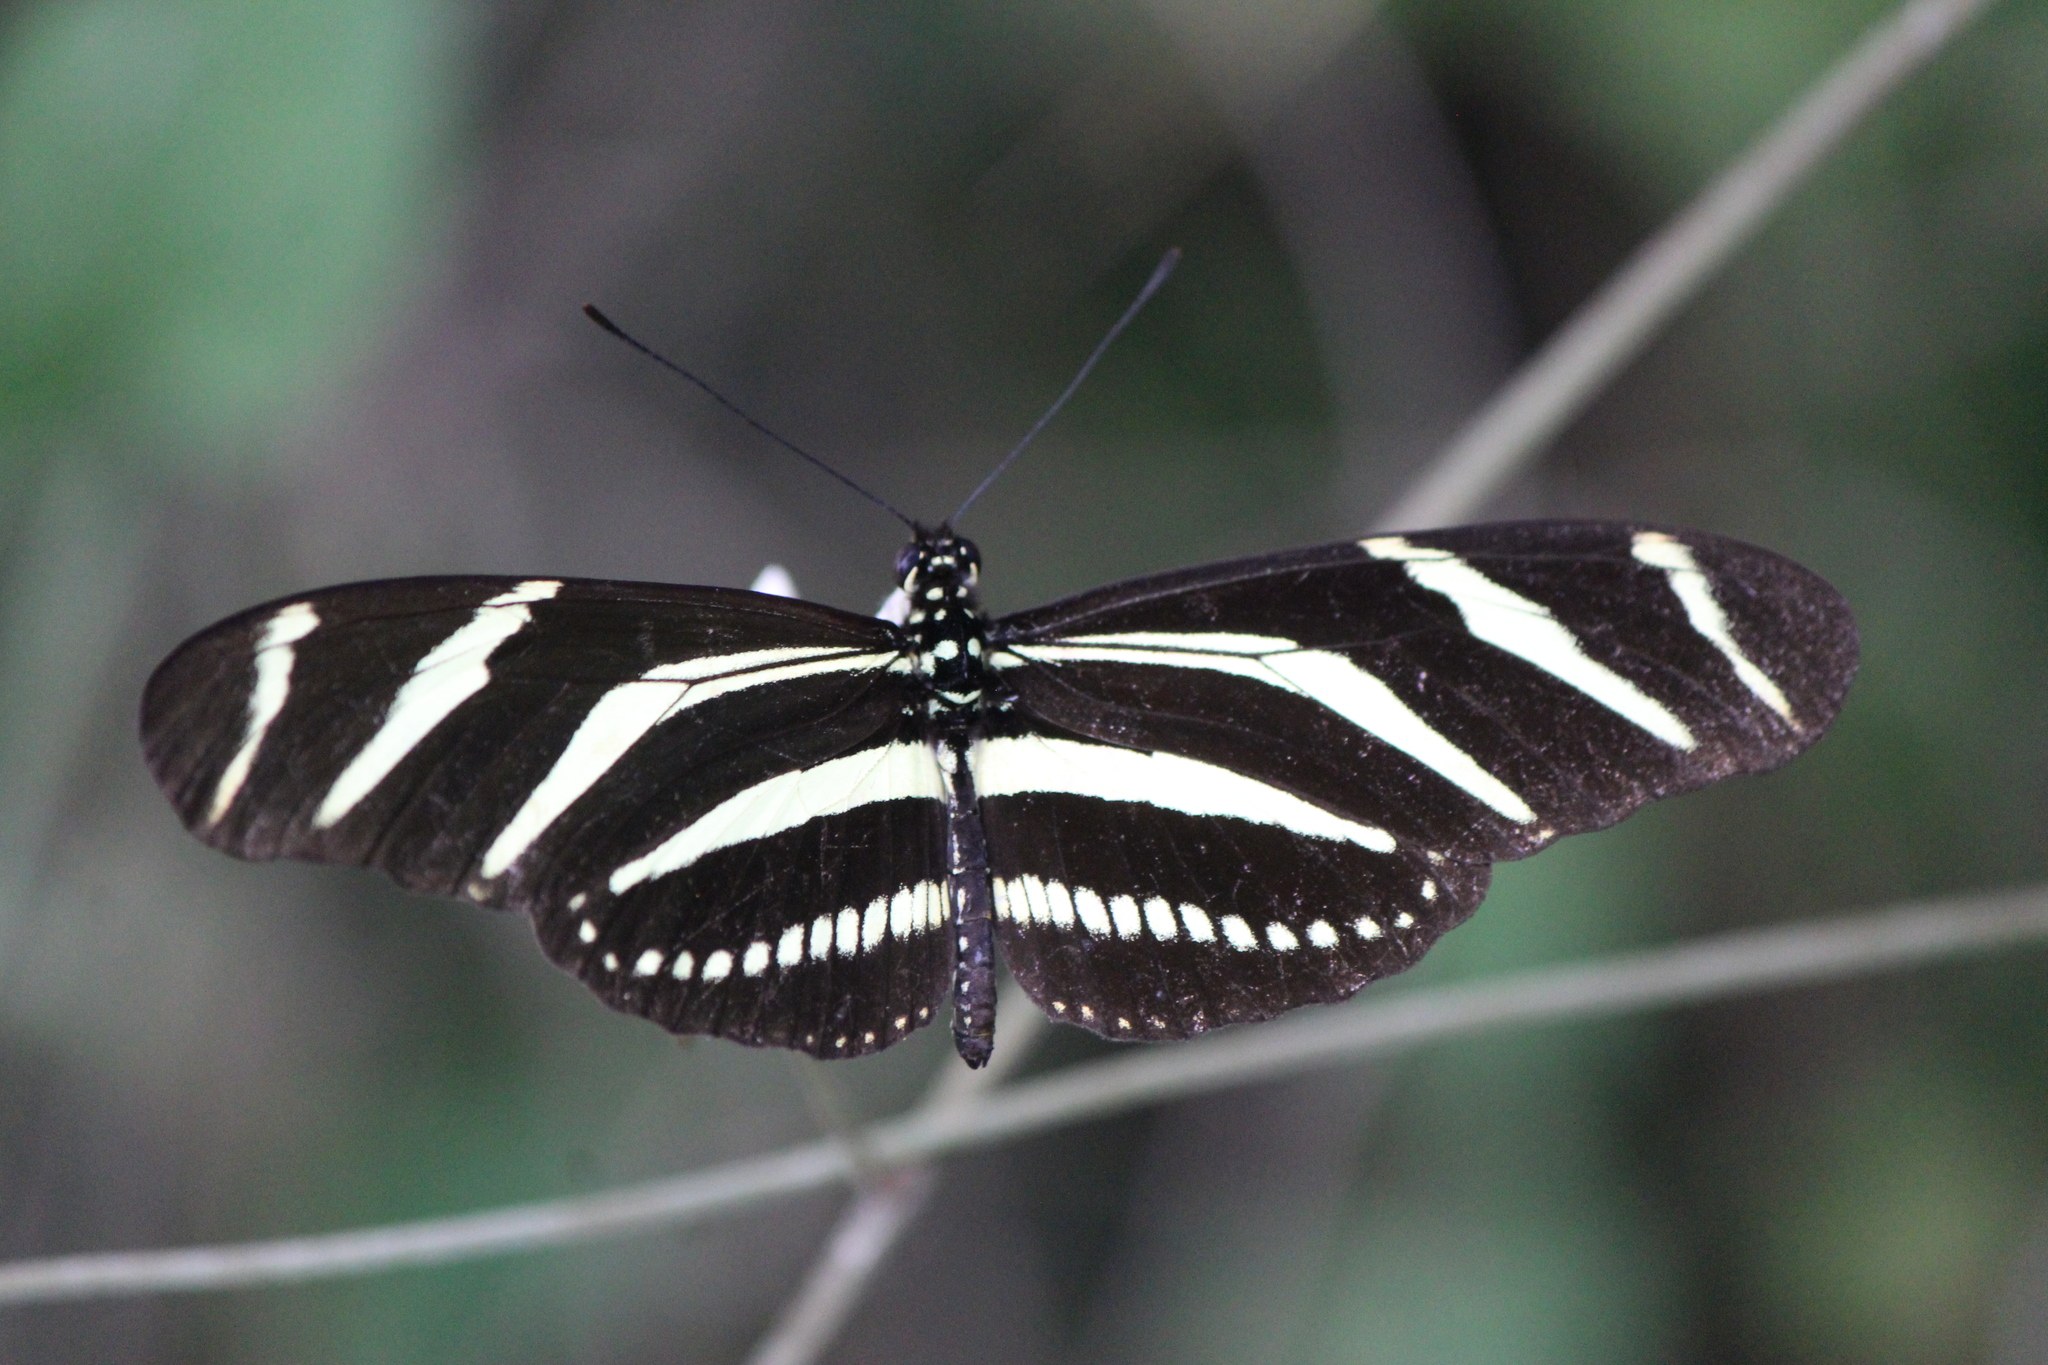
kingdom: Animalia
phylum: Arthropoda
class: Insecta
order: Lepidoptera
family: Nymphalidae
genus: Heliconius
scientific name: Heliconius charithonia
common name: Zebra long wing
